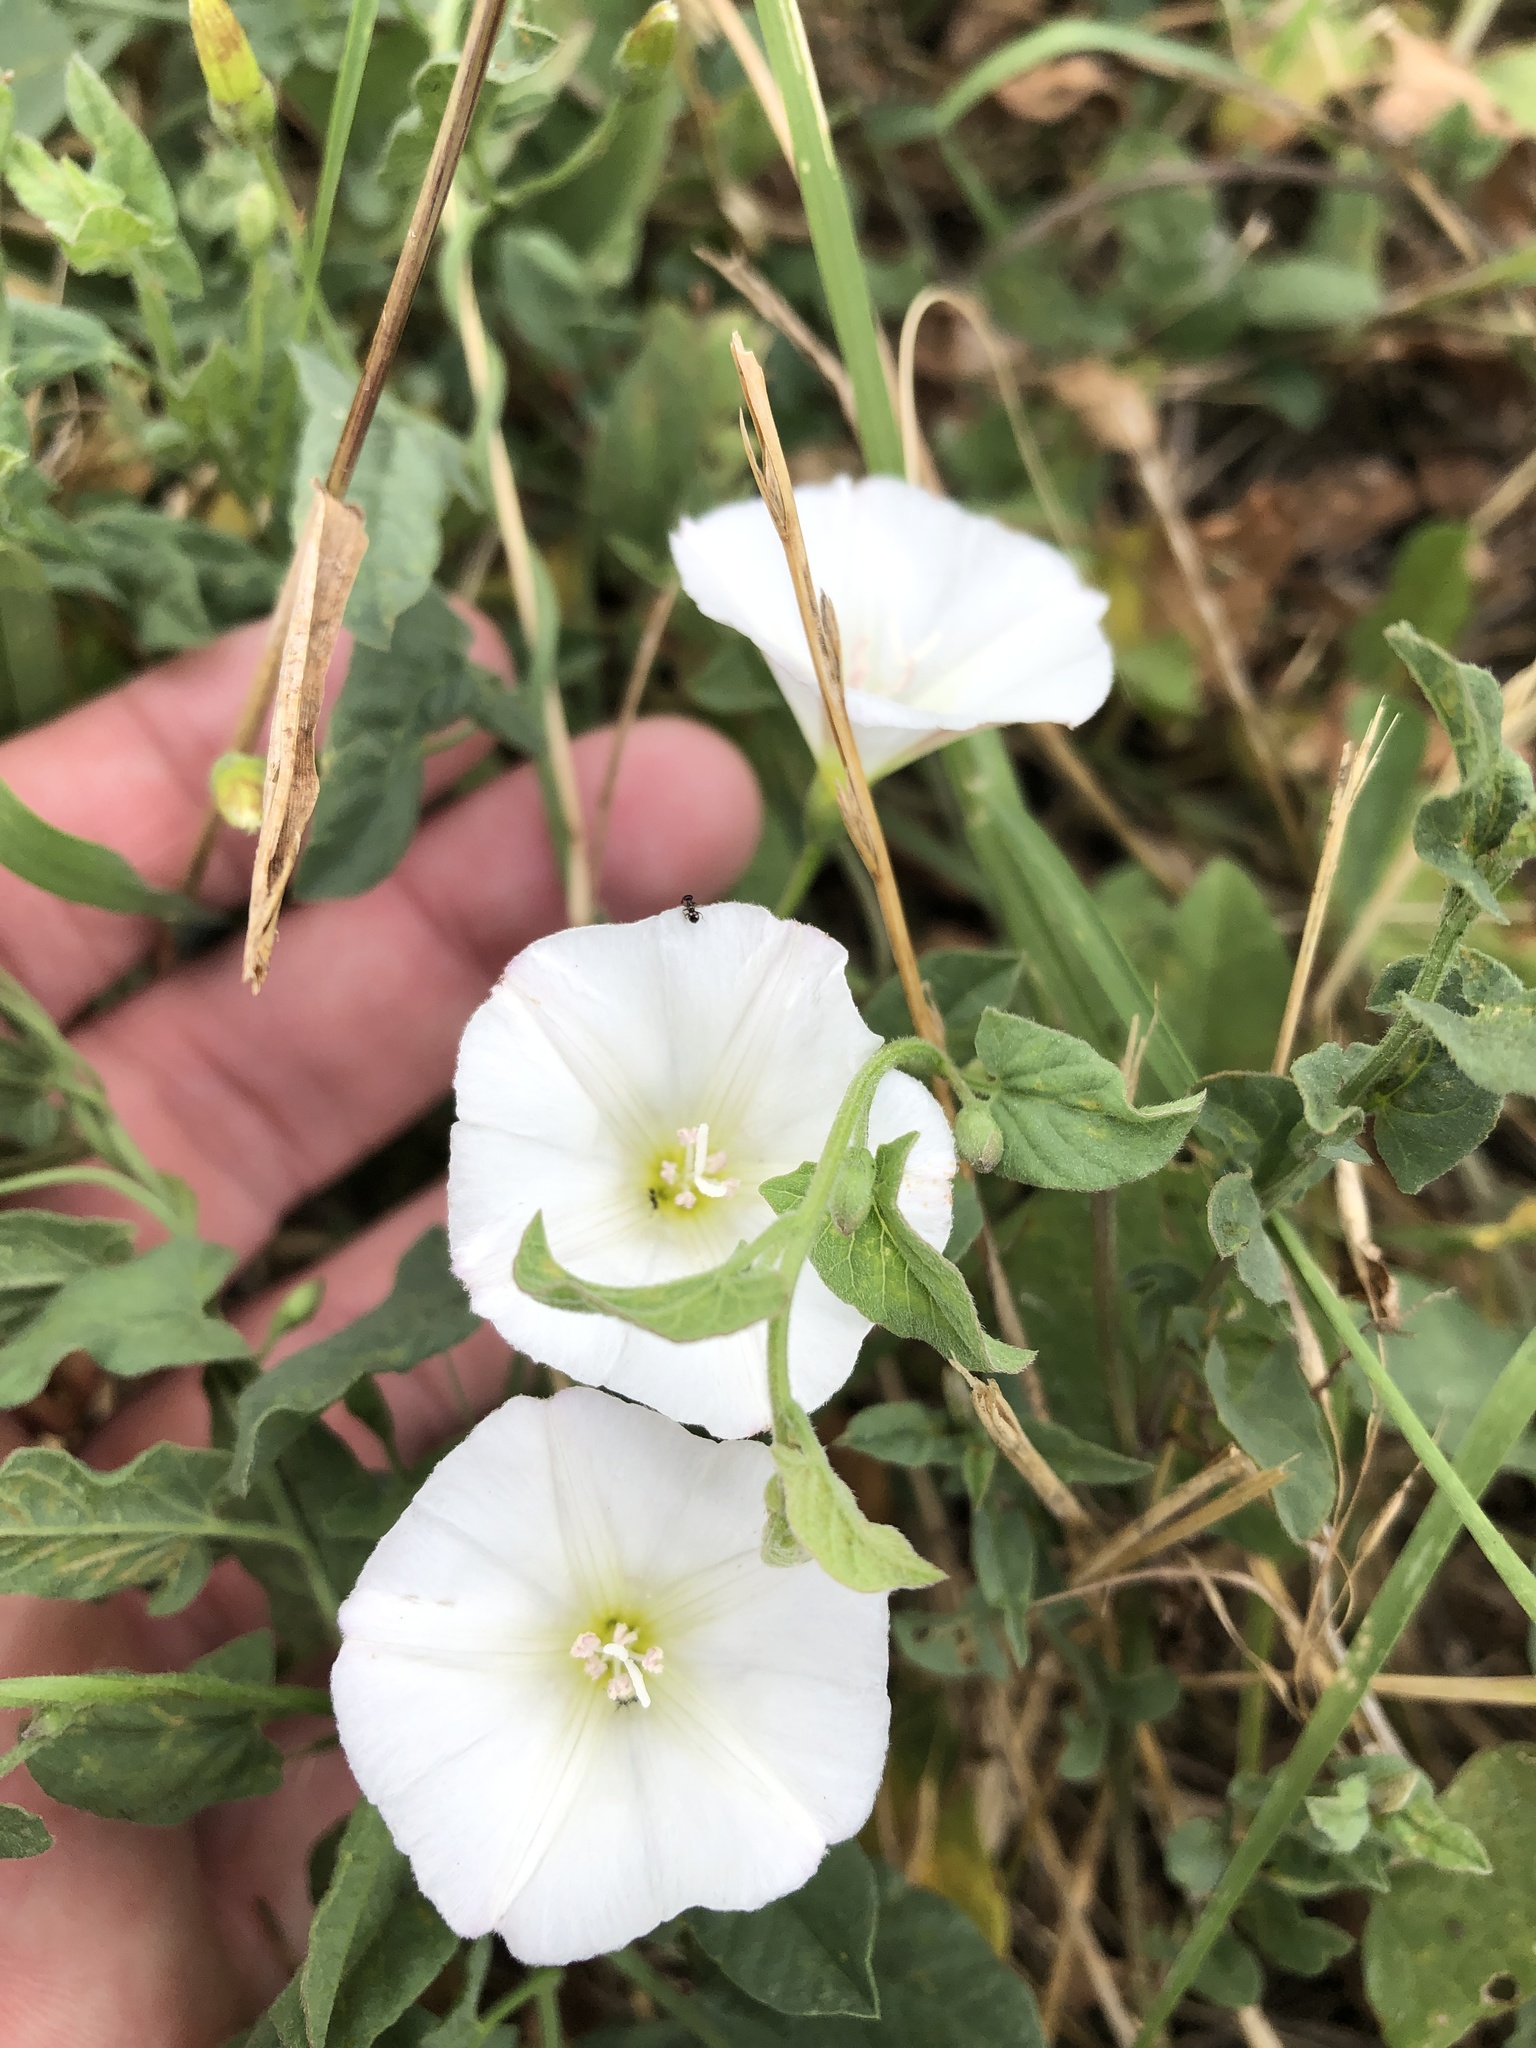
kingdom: Plantae
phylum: Tracheophyta
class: Magnoliopsida
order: Solanales
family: Convolvulaceae
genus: Convolvulus
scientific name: Convolvulus arvensis
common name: Field bindweed
